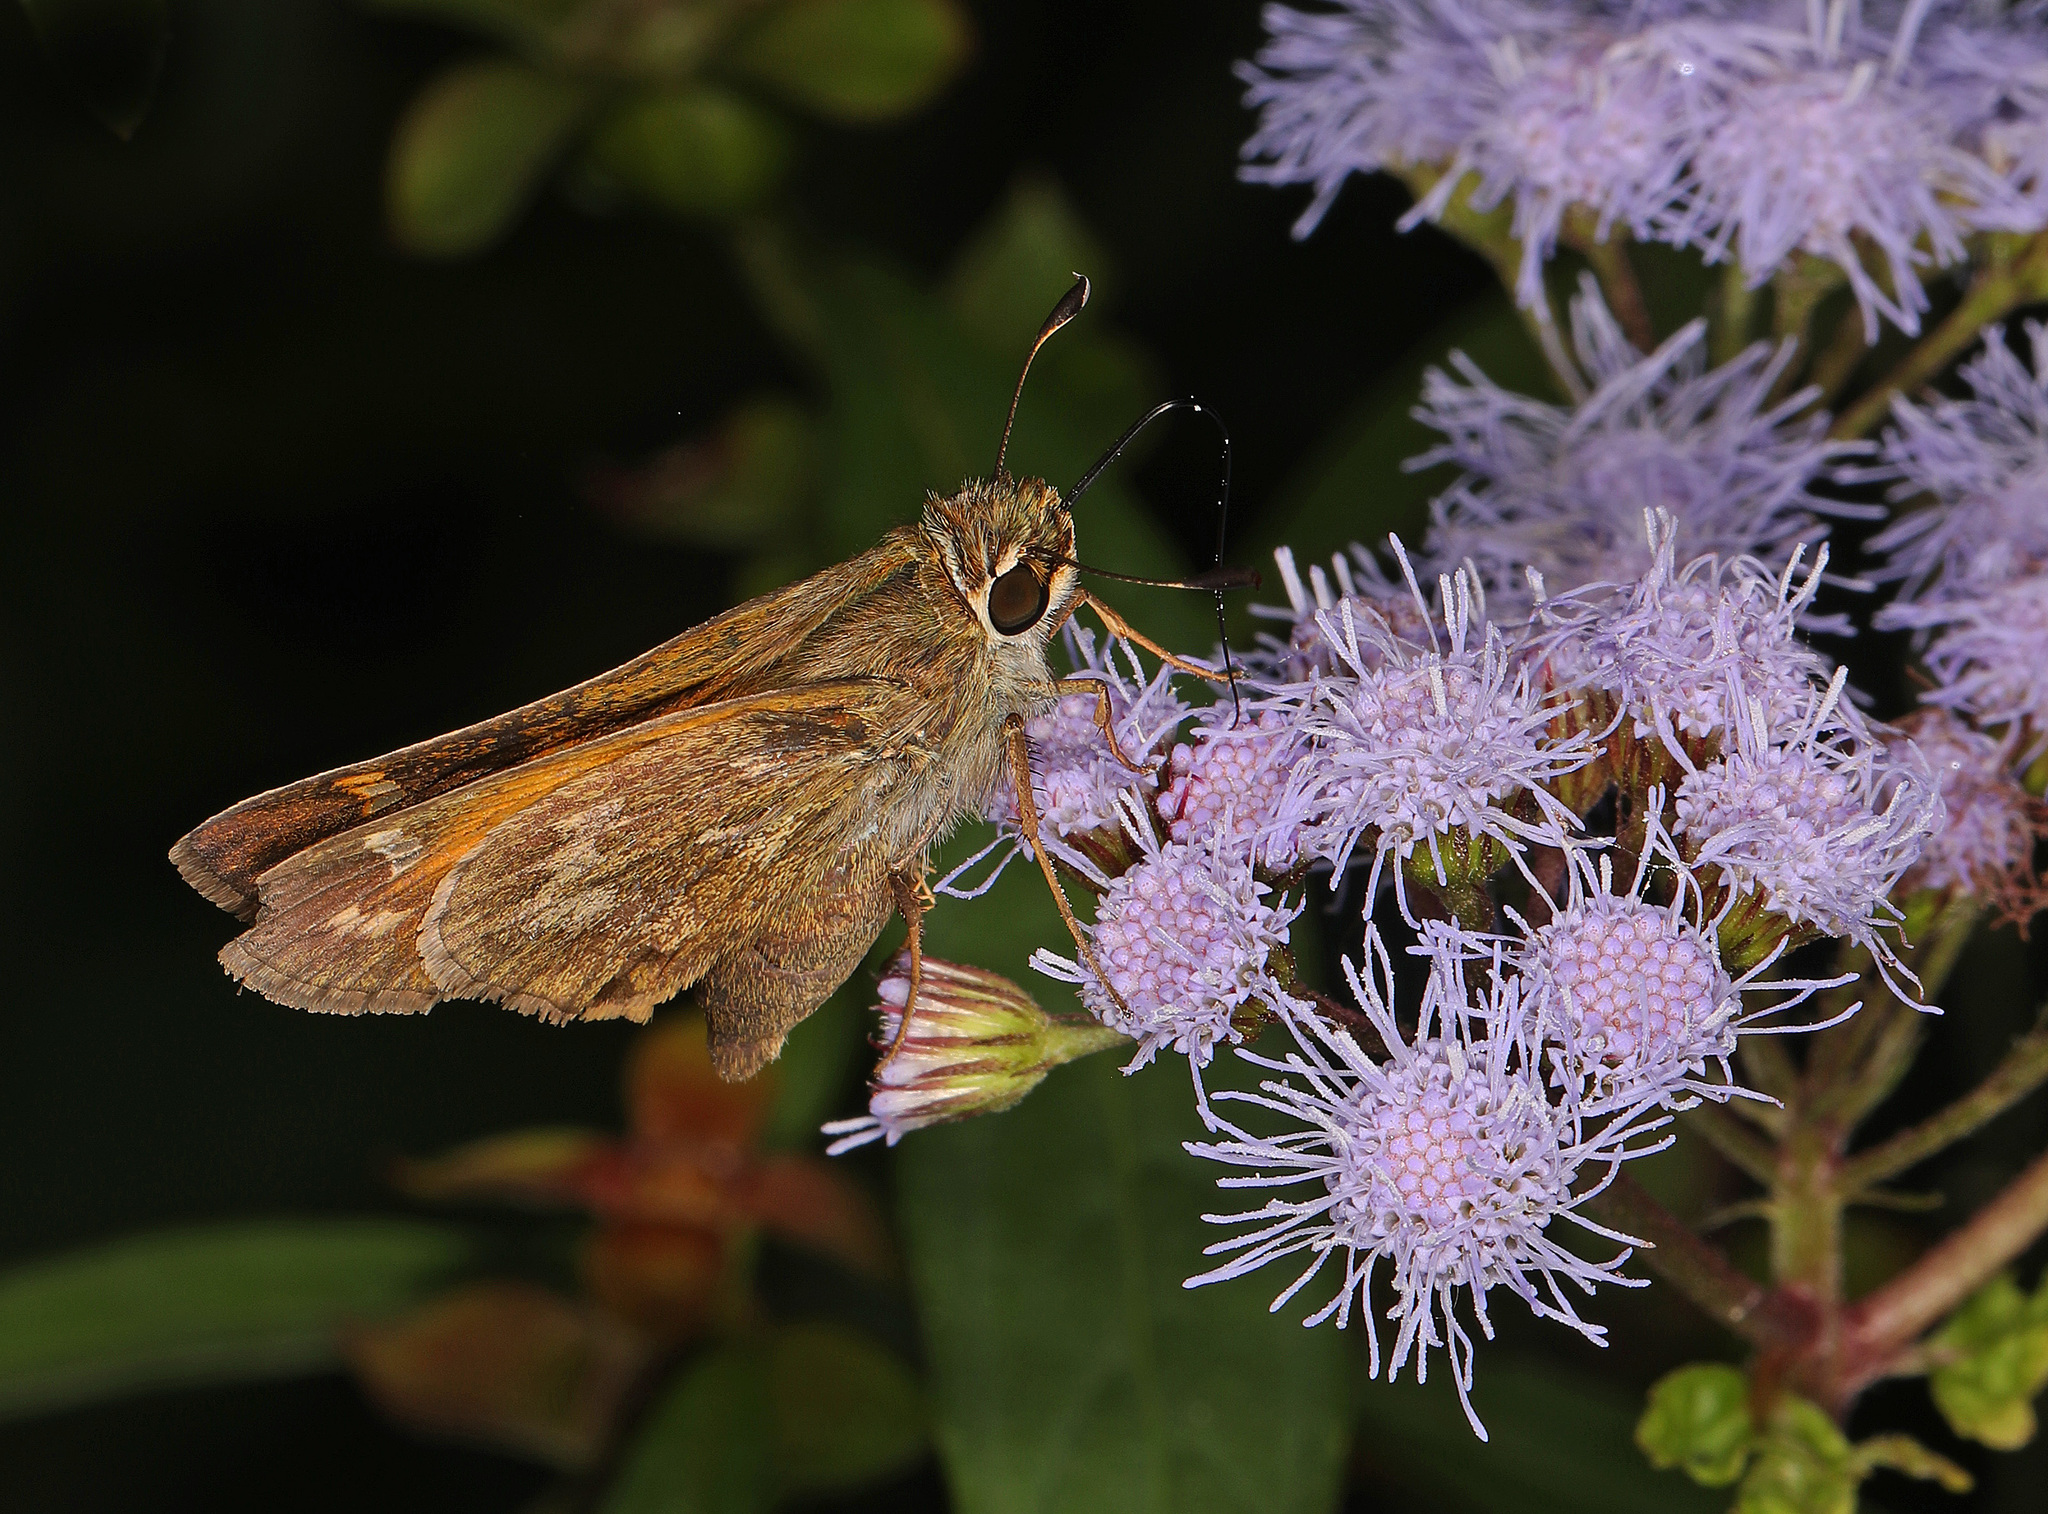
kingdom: Animalia
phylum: Arthropoda
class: Insecta
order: Lepidoptera
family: Hesperiidae
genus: Atalopedes
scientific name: Atalopedes
